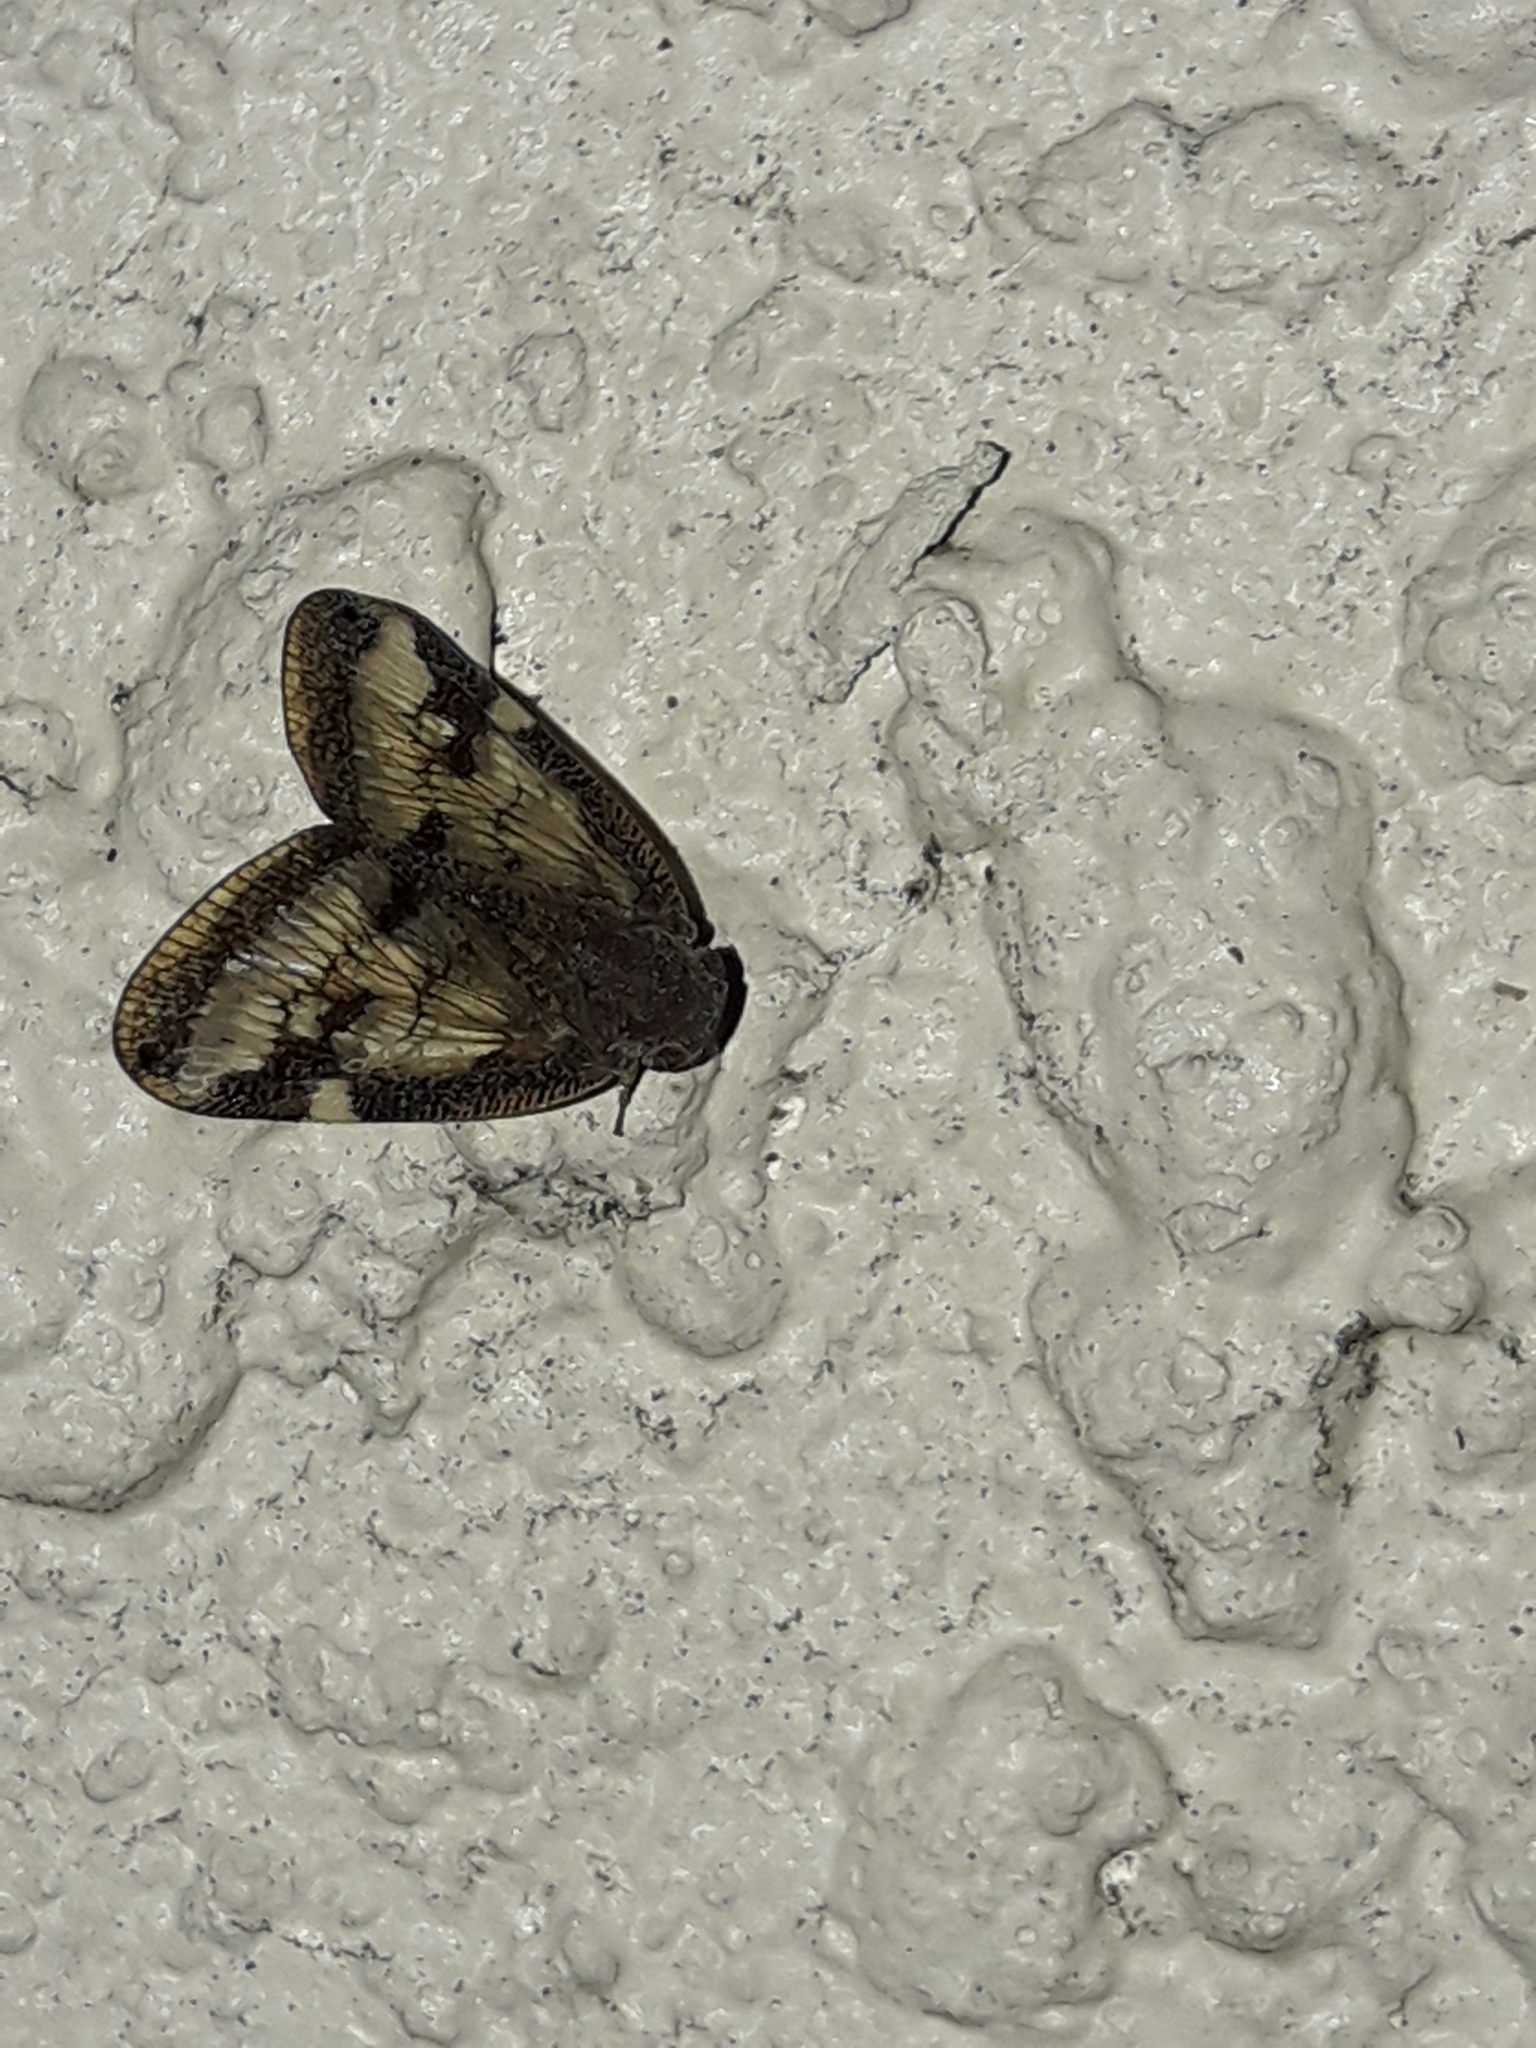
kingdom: Animalia
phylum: Arthropoda
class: Insecta
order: Hemiptera
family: Ricaniidae
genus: Scolypopa
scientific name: Scolypopa australis
